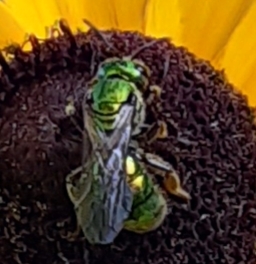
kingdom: Animalia
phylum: Arthropoda
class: Insecta
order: Hymenoptera
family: Halictidae
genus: Augochlora
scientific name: Augochlora pura
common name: Pure green sweat bee
